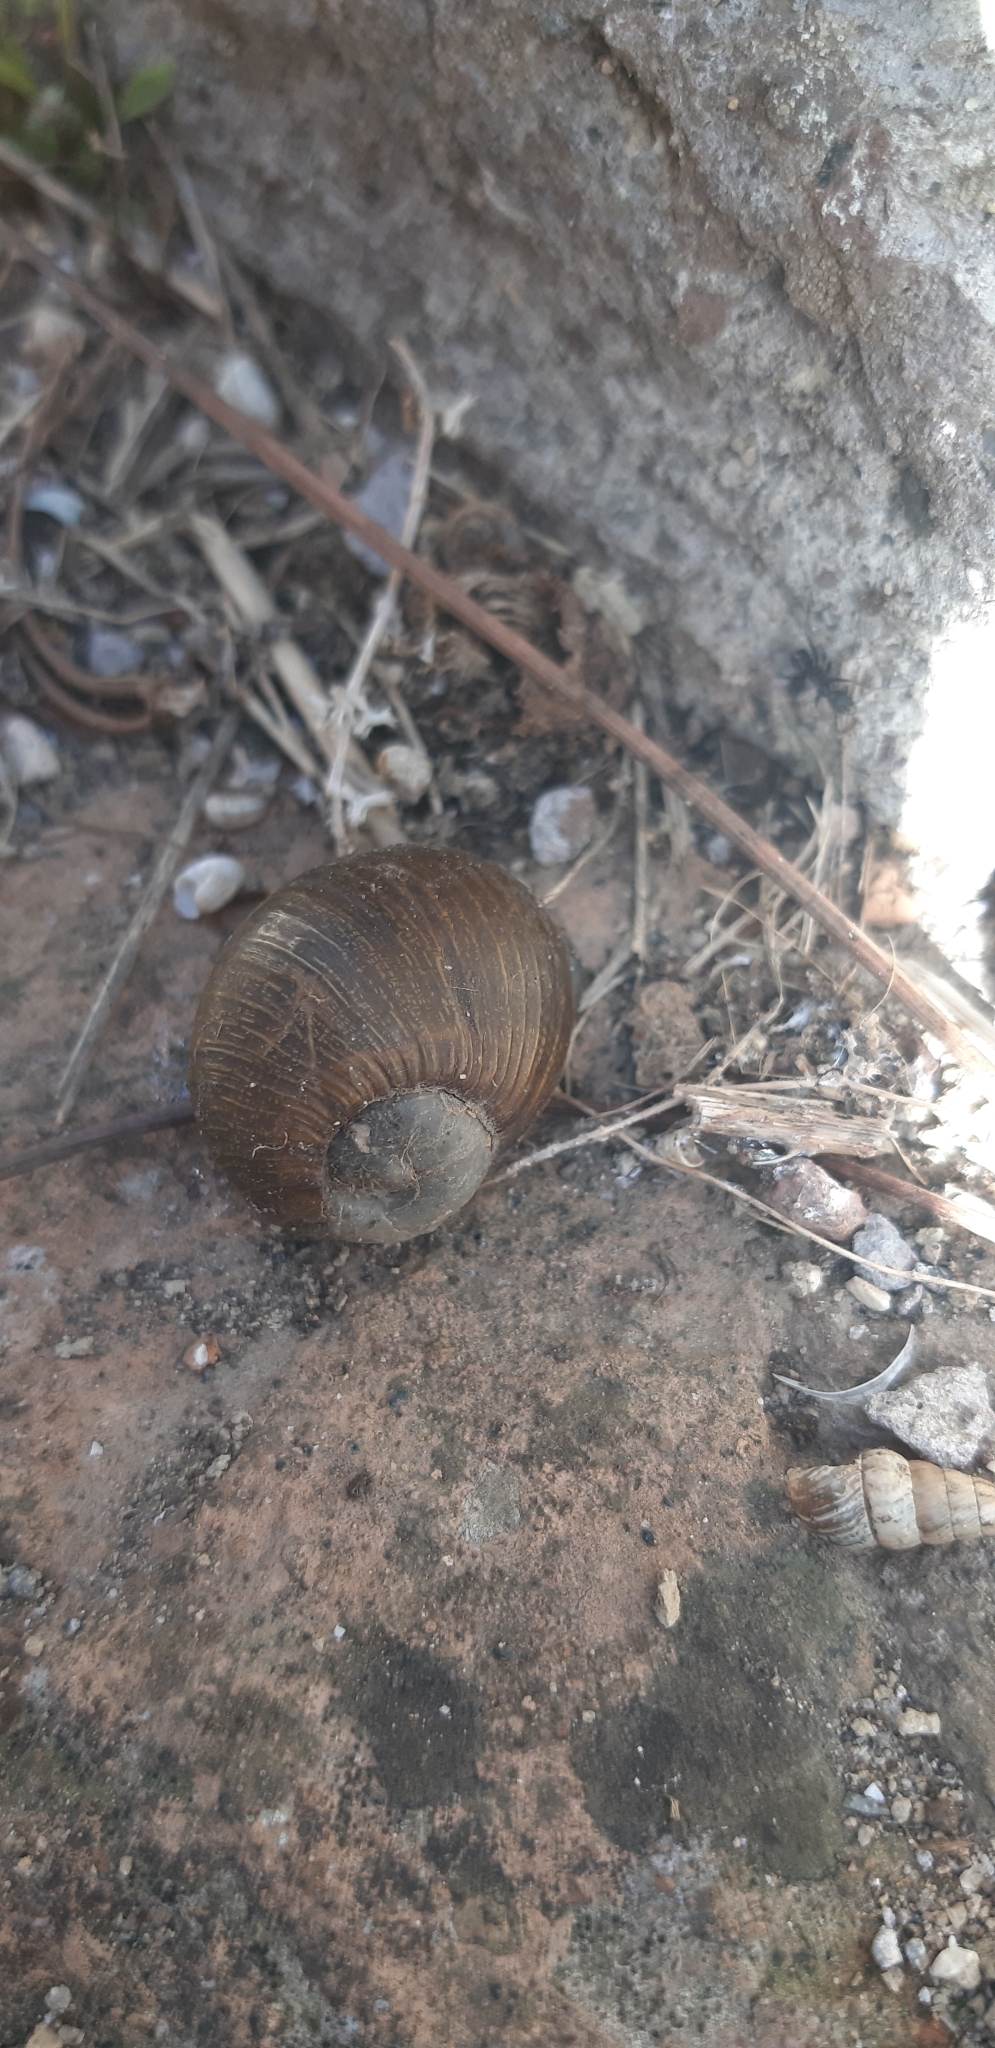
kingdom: Animalia
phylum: Mollusca
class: Gastropoda
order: Stylommatophora
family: Helicidae
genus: Cantareus
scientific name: Cantareus apertus
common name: Green gardensnail
